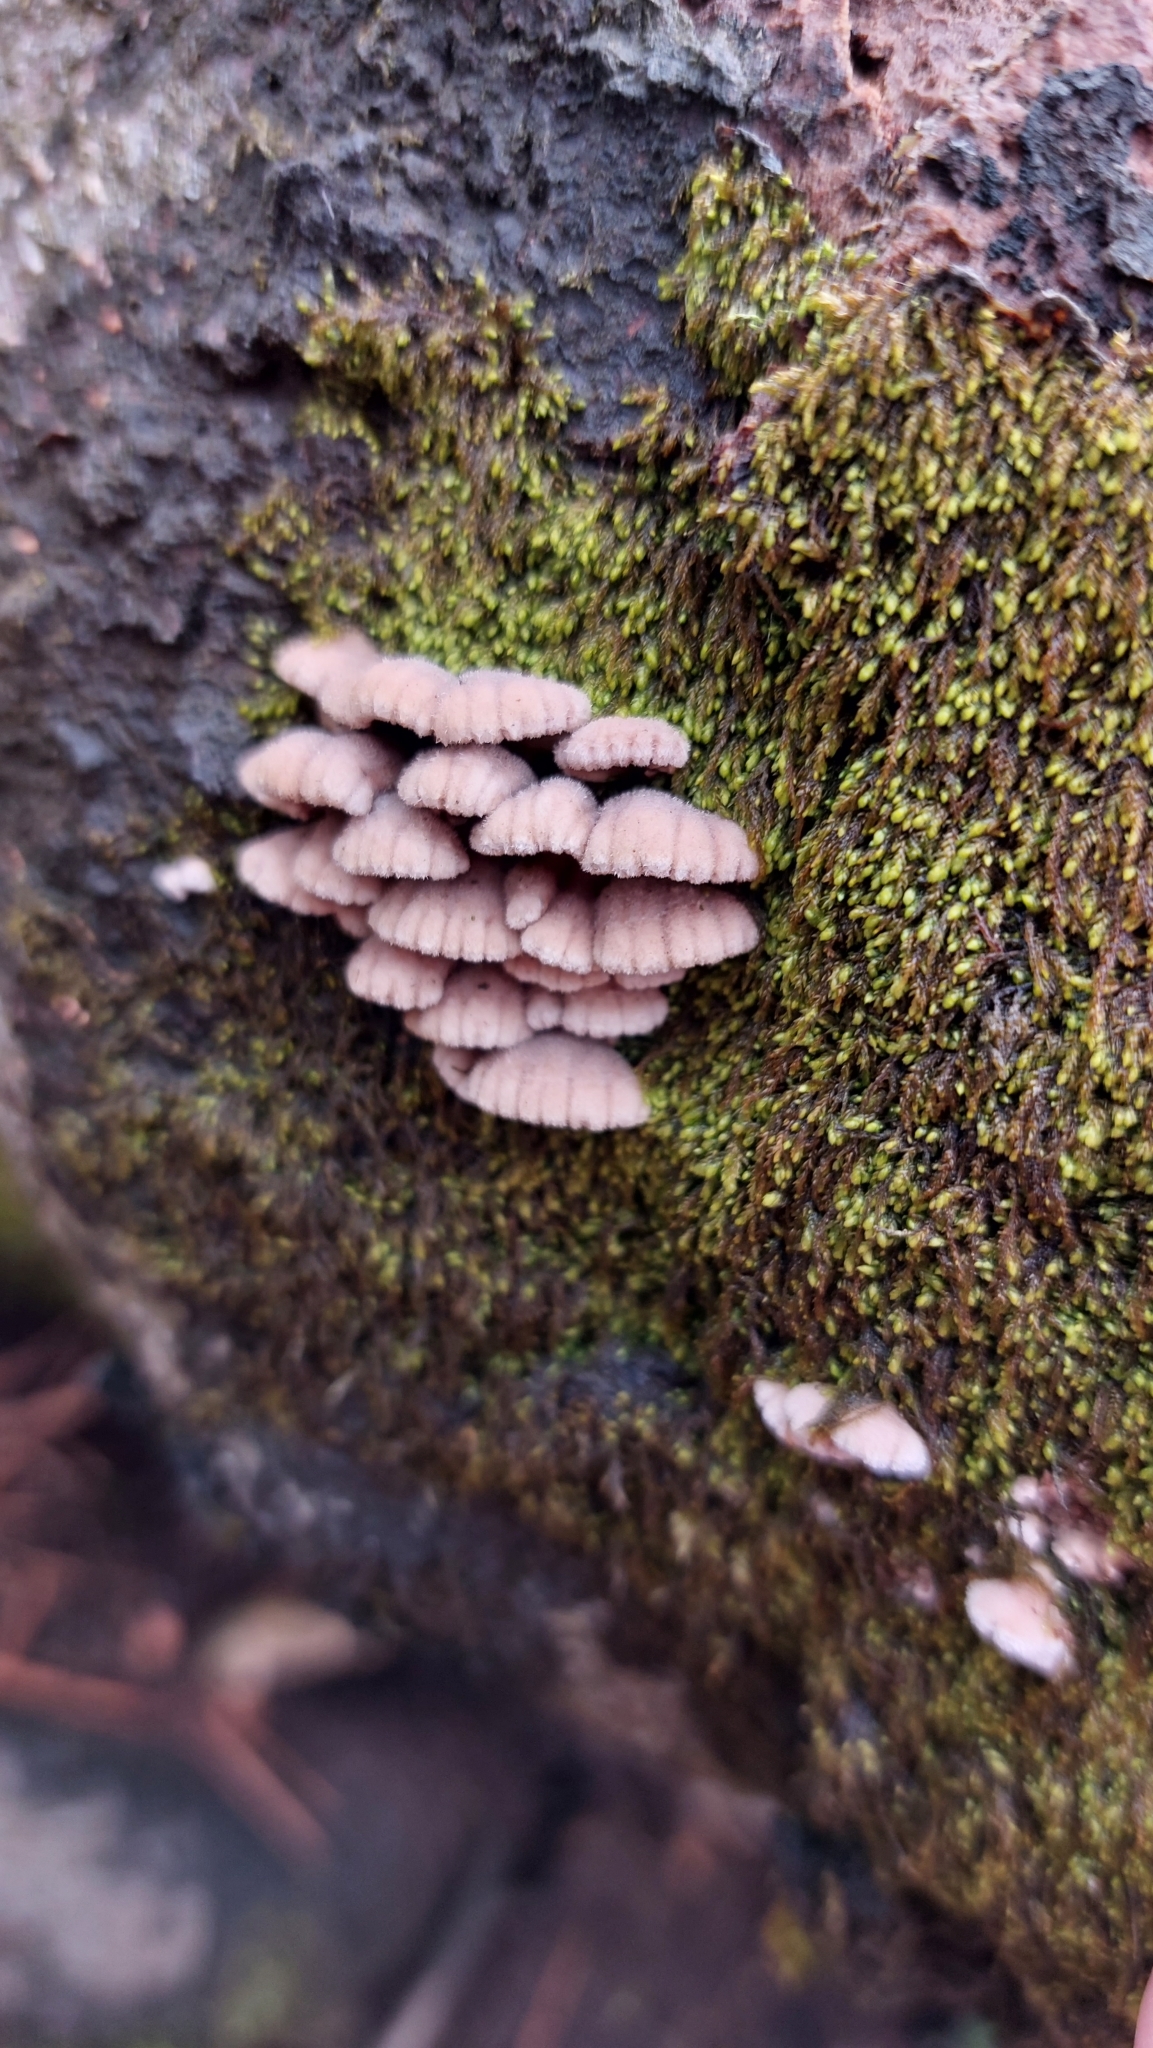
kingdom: Fungi
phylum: Basidiomycota
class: Agaricomycetes
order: Agaricales
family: Schizophyllaceae
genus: Schizophyllum
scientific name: Schizophyllum commune
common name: Common porecrust
